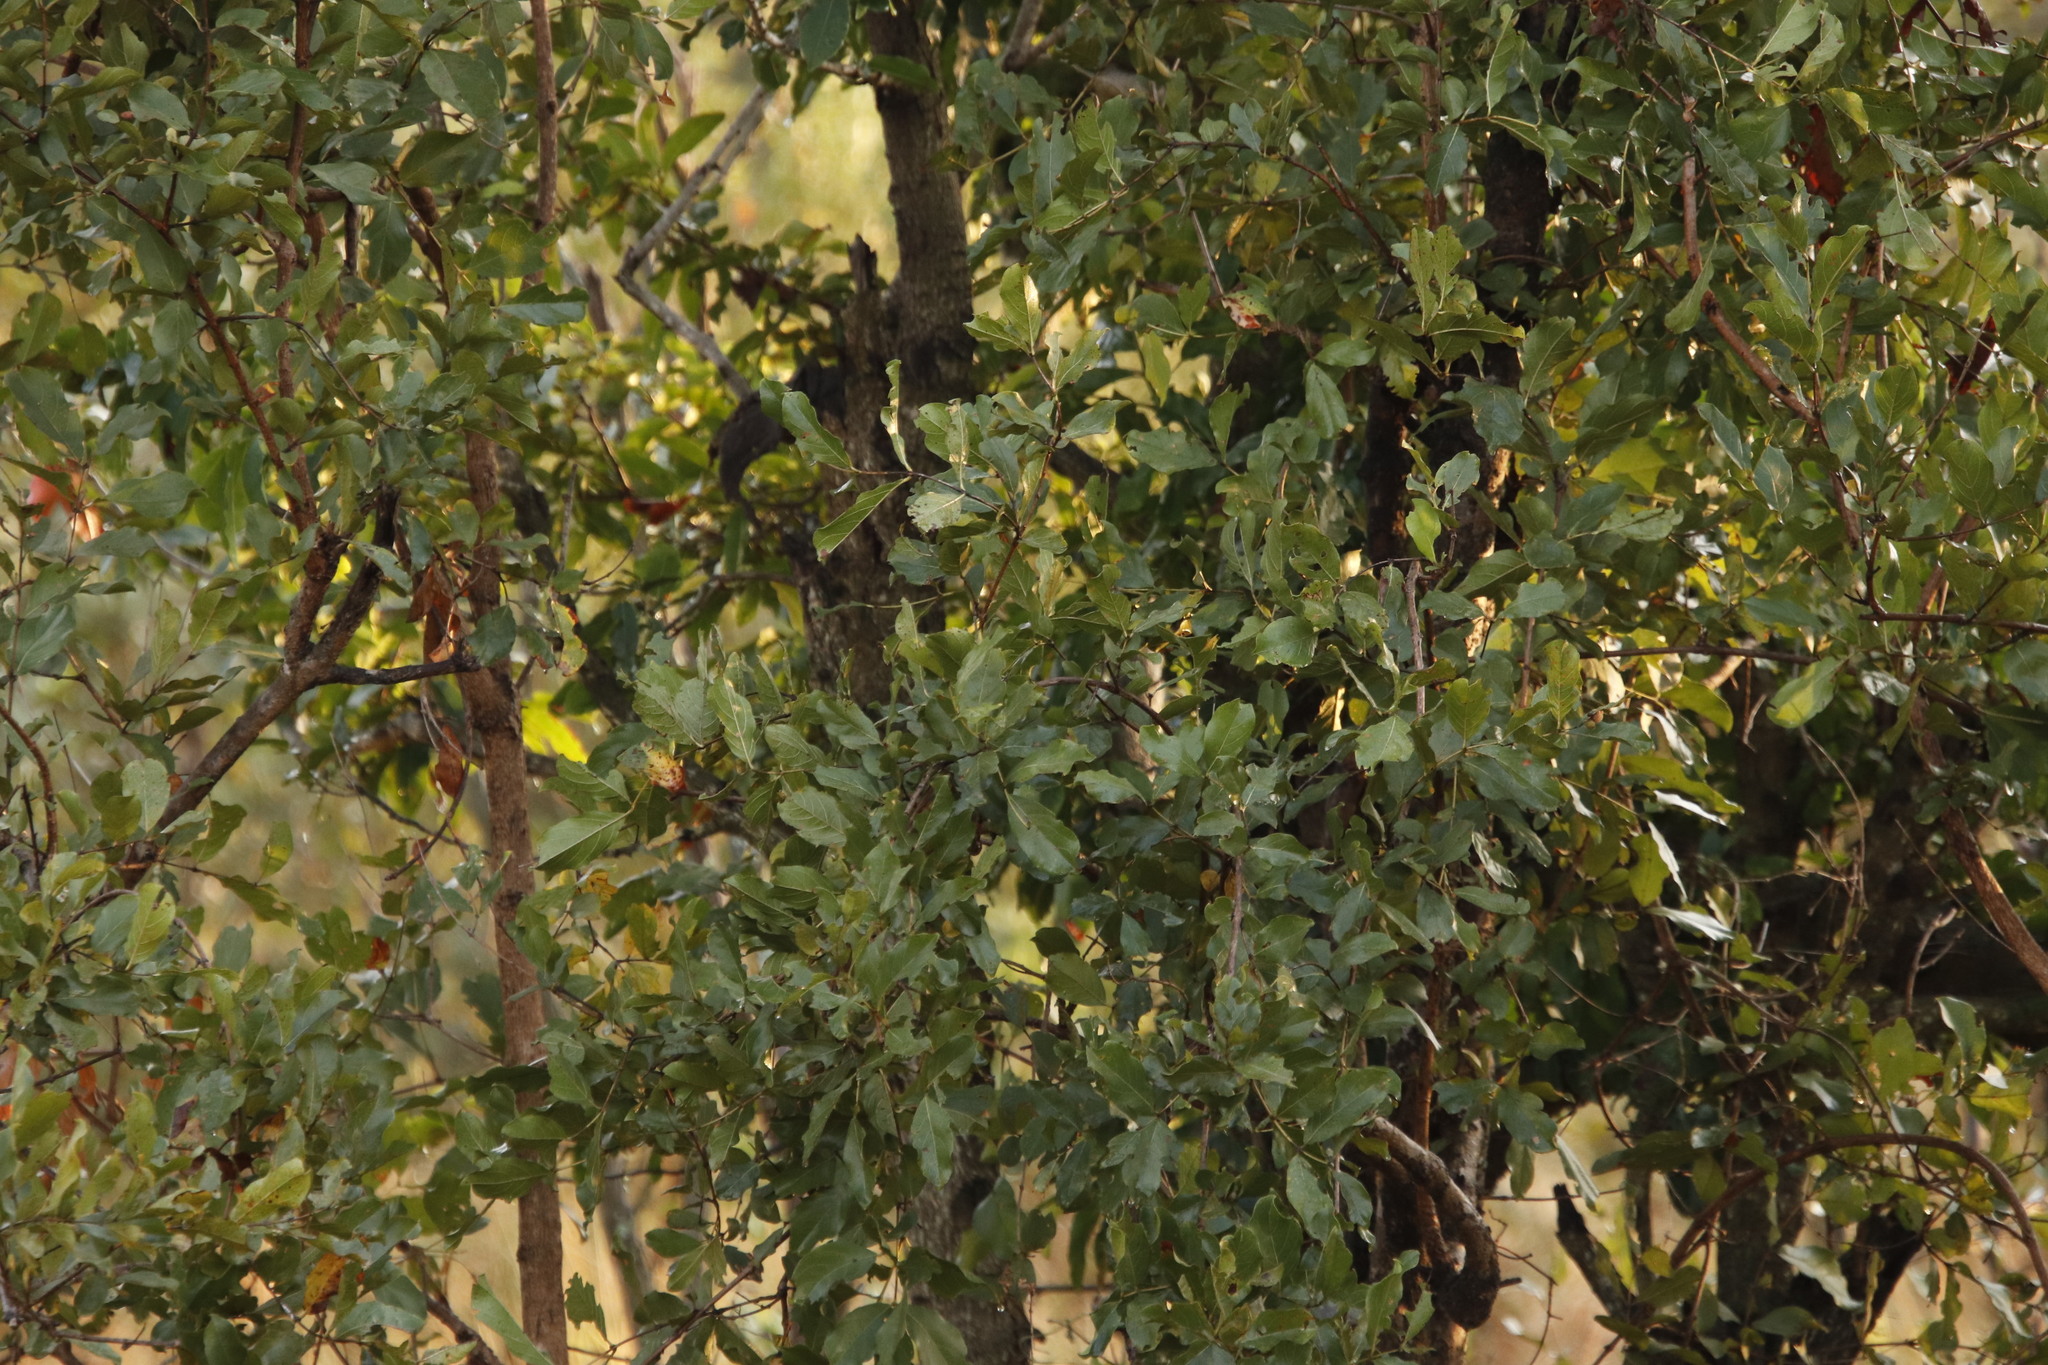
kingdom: Plantae
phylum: Tracheophyta
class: Magnoliopsida
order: Myrtales
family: Combretaceae
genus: Combretum
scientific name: Combretum apiculatum
